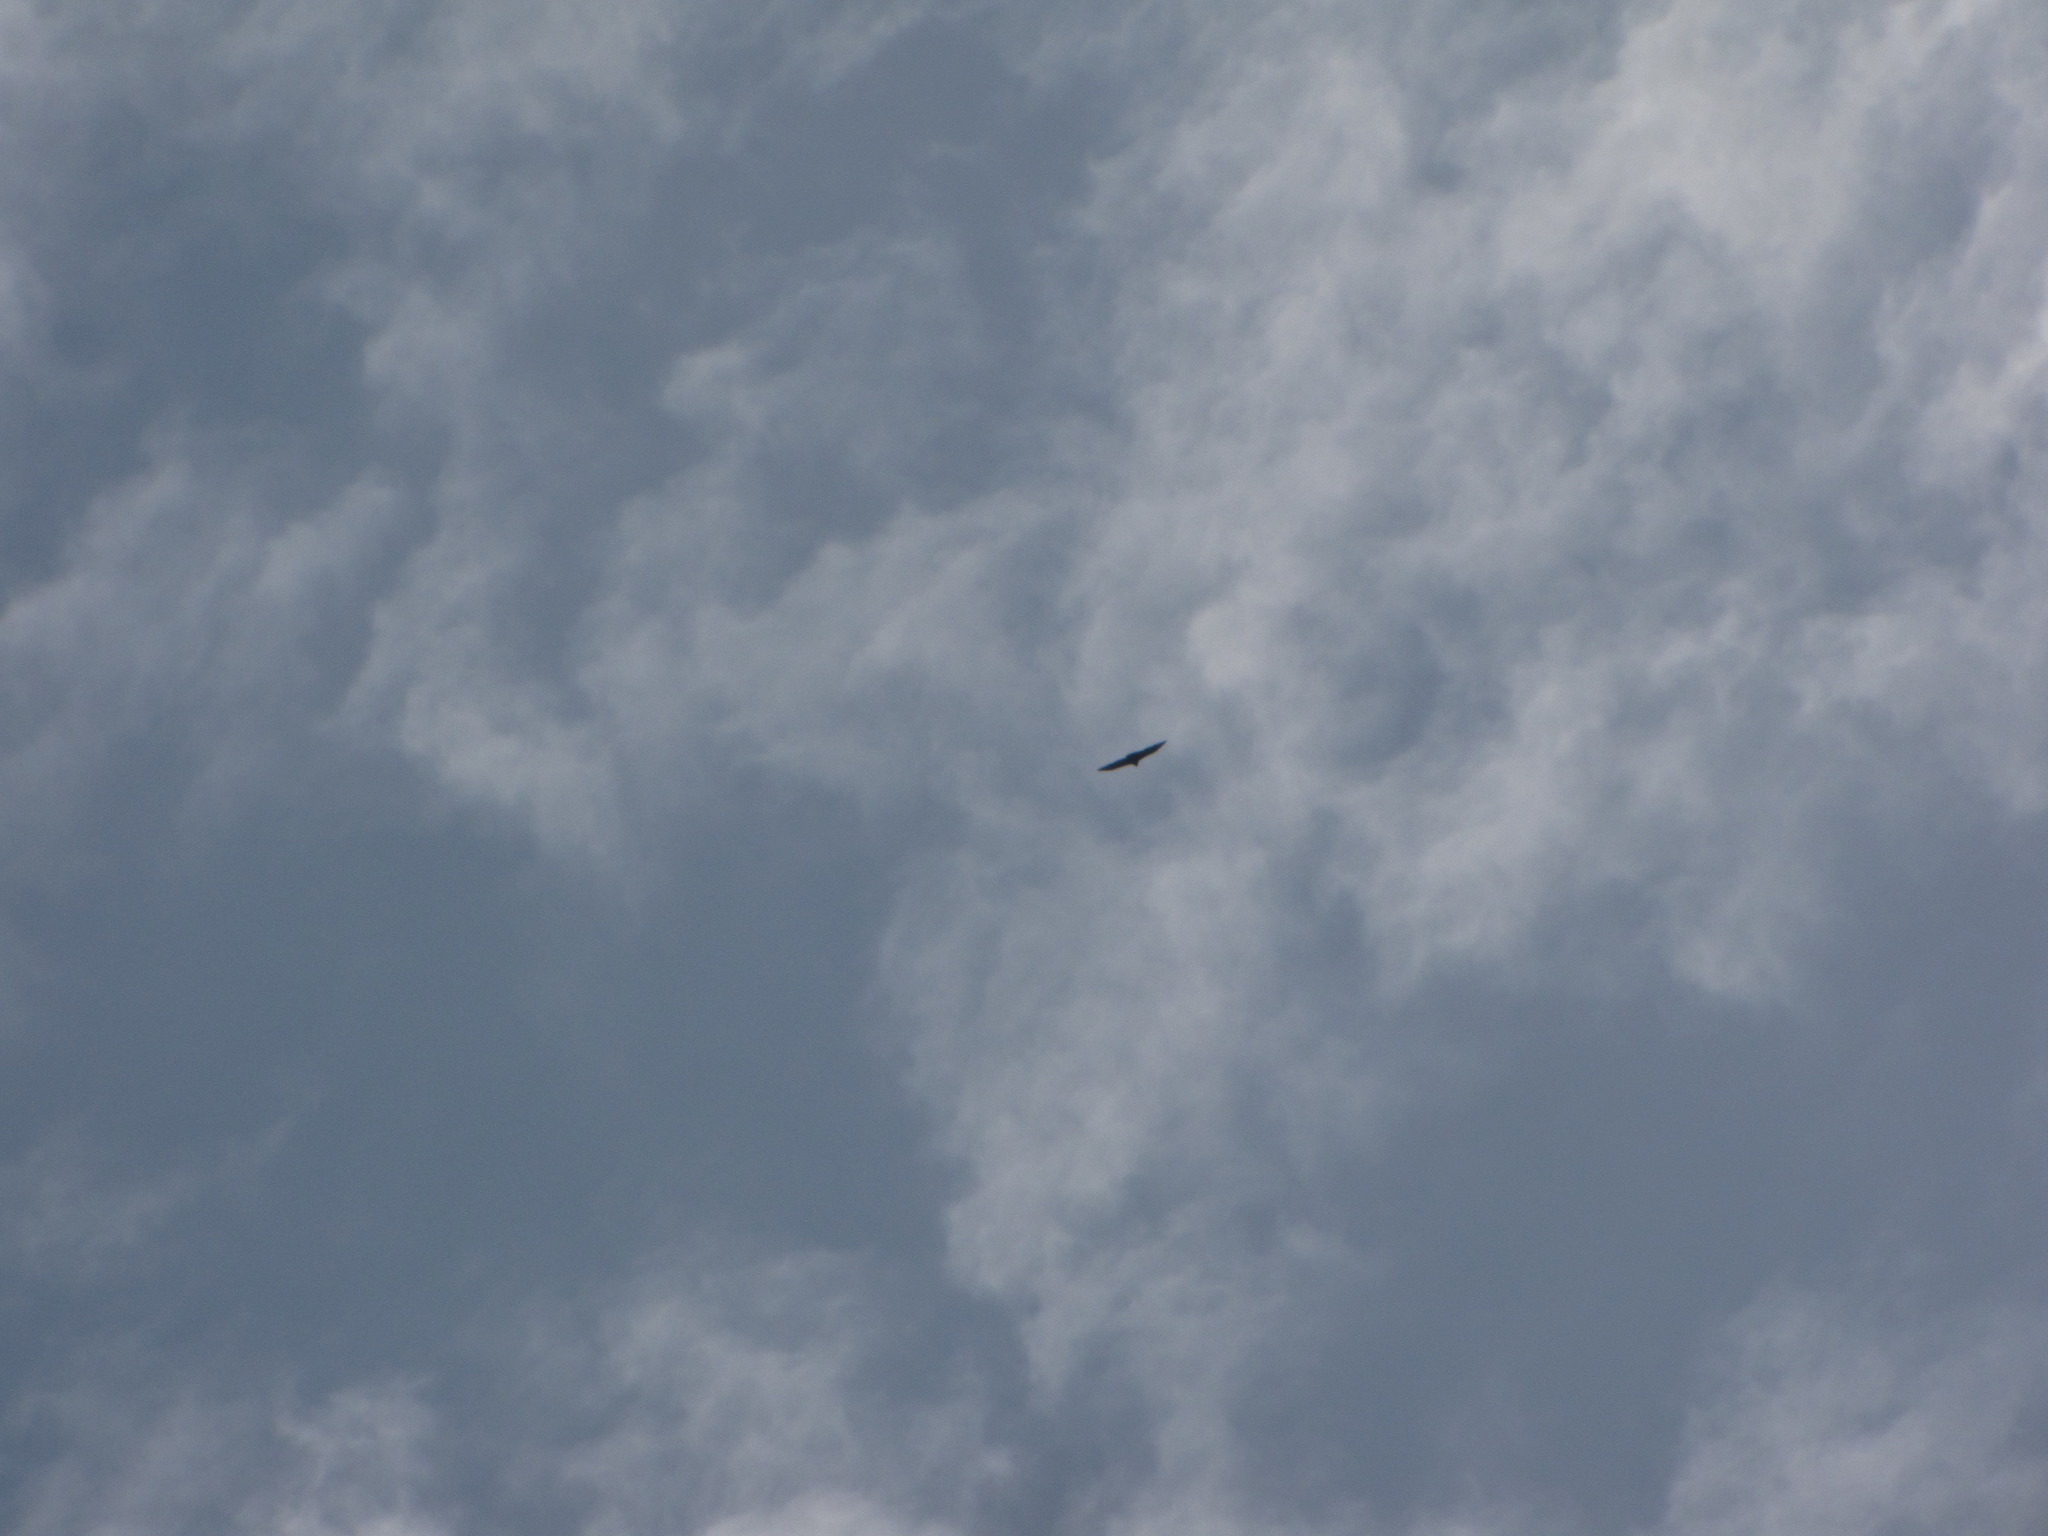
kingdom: Animalia
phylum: Chordata
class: Aves
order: Accipitriformes
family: Cathartidae
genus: Cathartes
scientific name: Cathartes aura
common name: Turkey vulture
